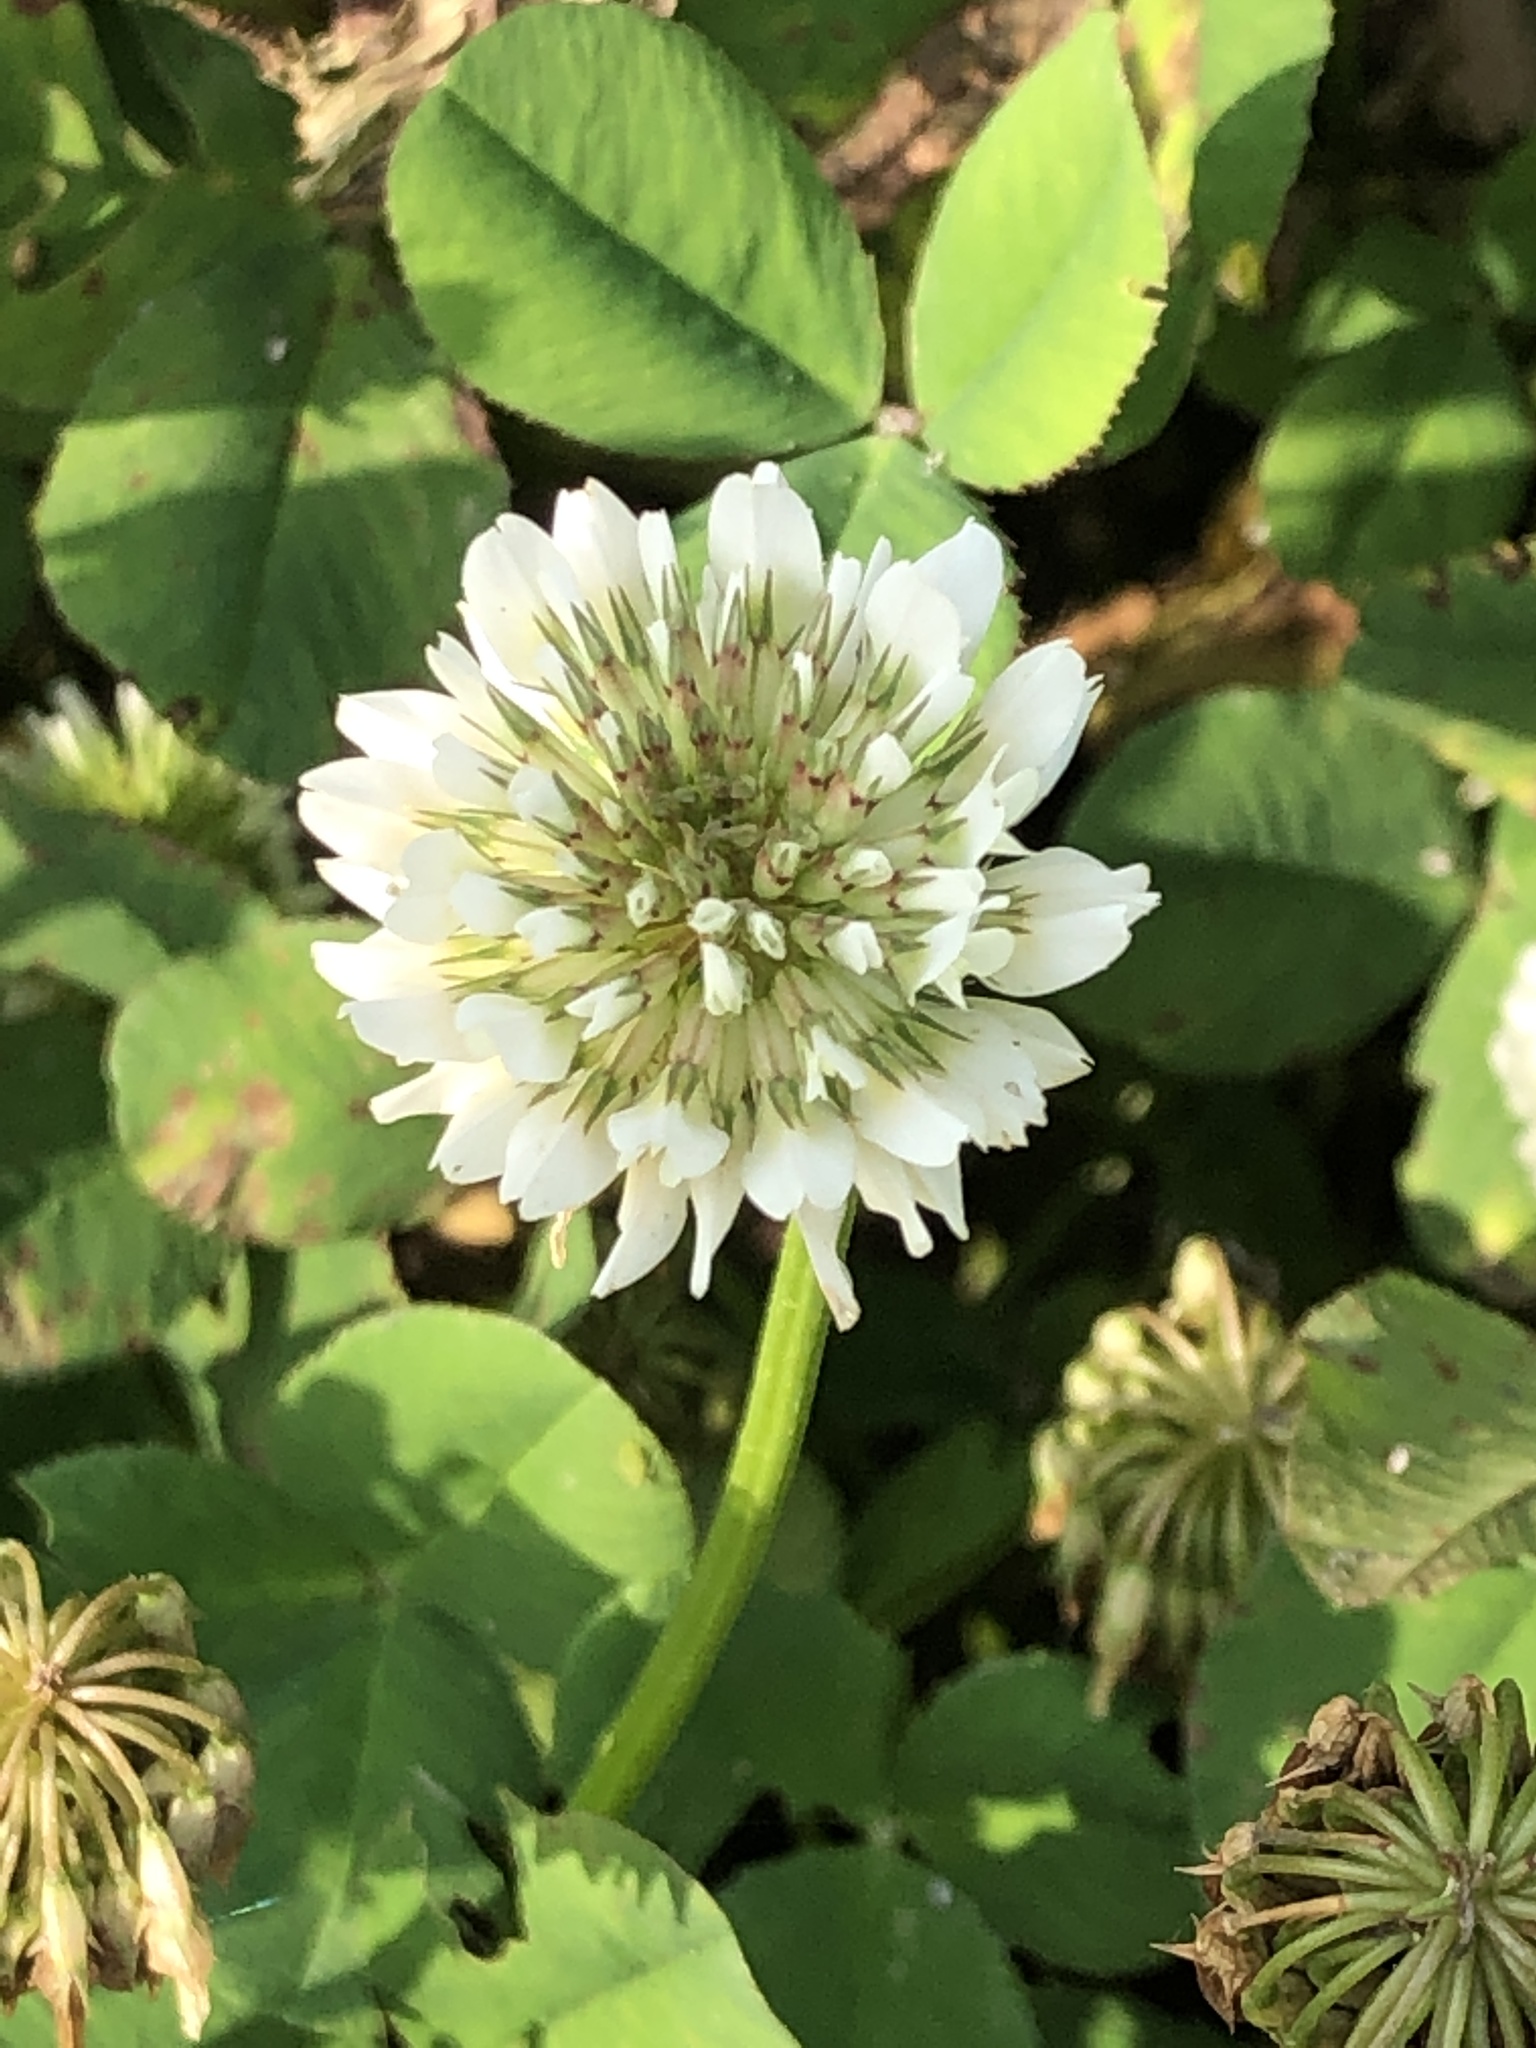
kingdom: Plantae
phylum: Tracheophyta
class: Magnoliopsida
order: Fabales
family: Fabaceae
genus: Trifolium
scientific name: Trifolium repens
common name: White clover
